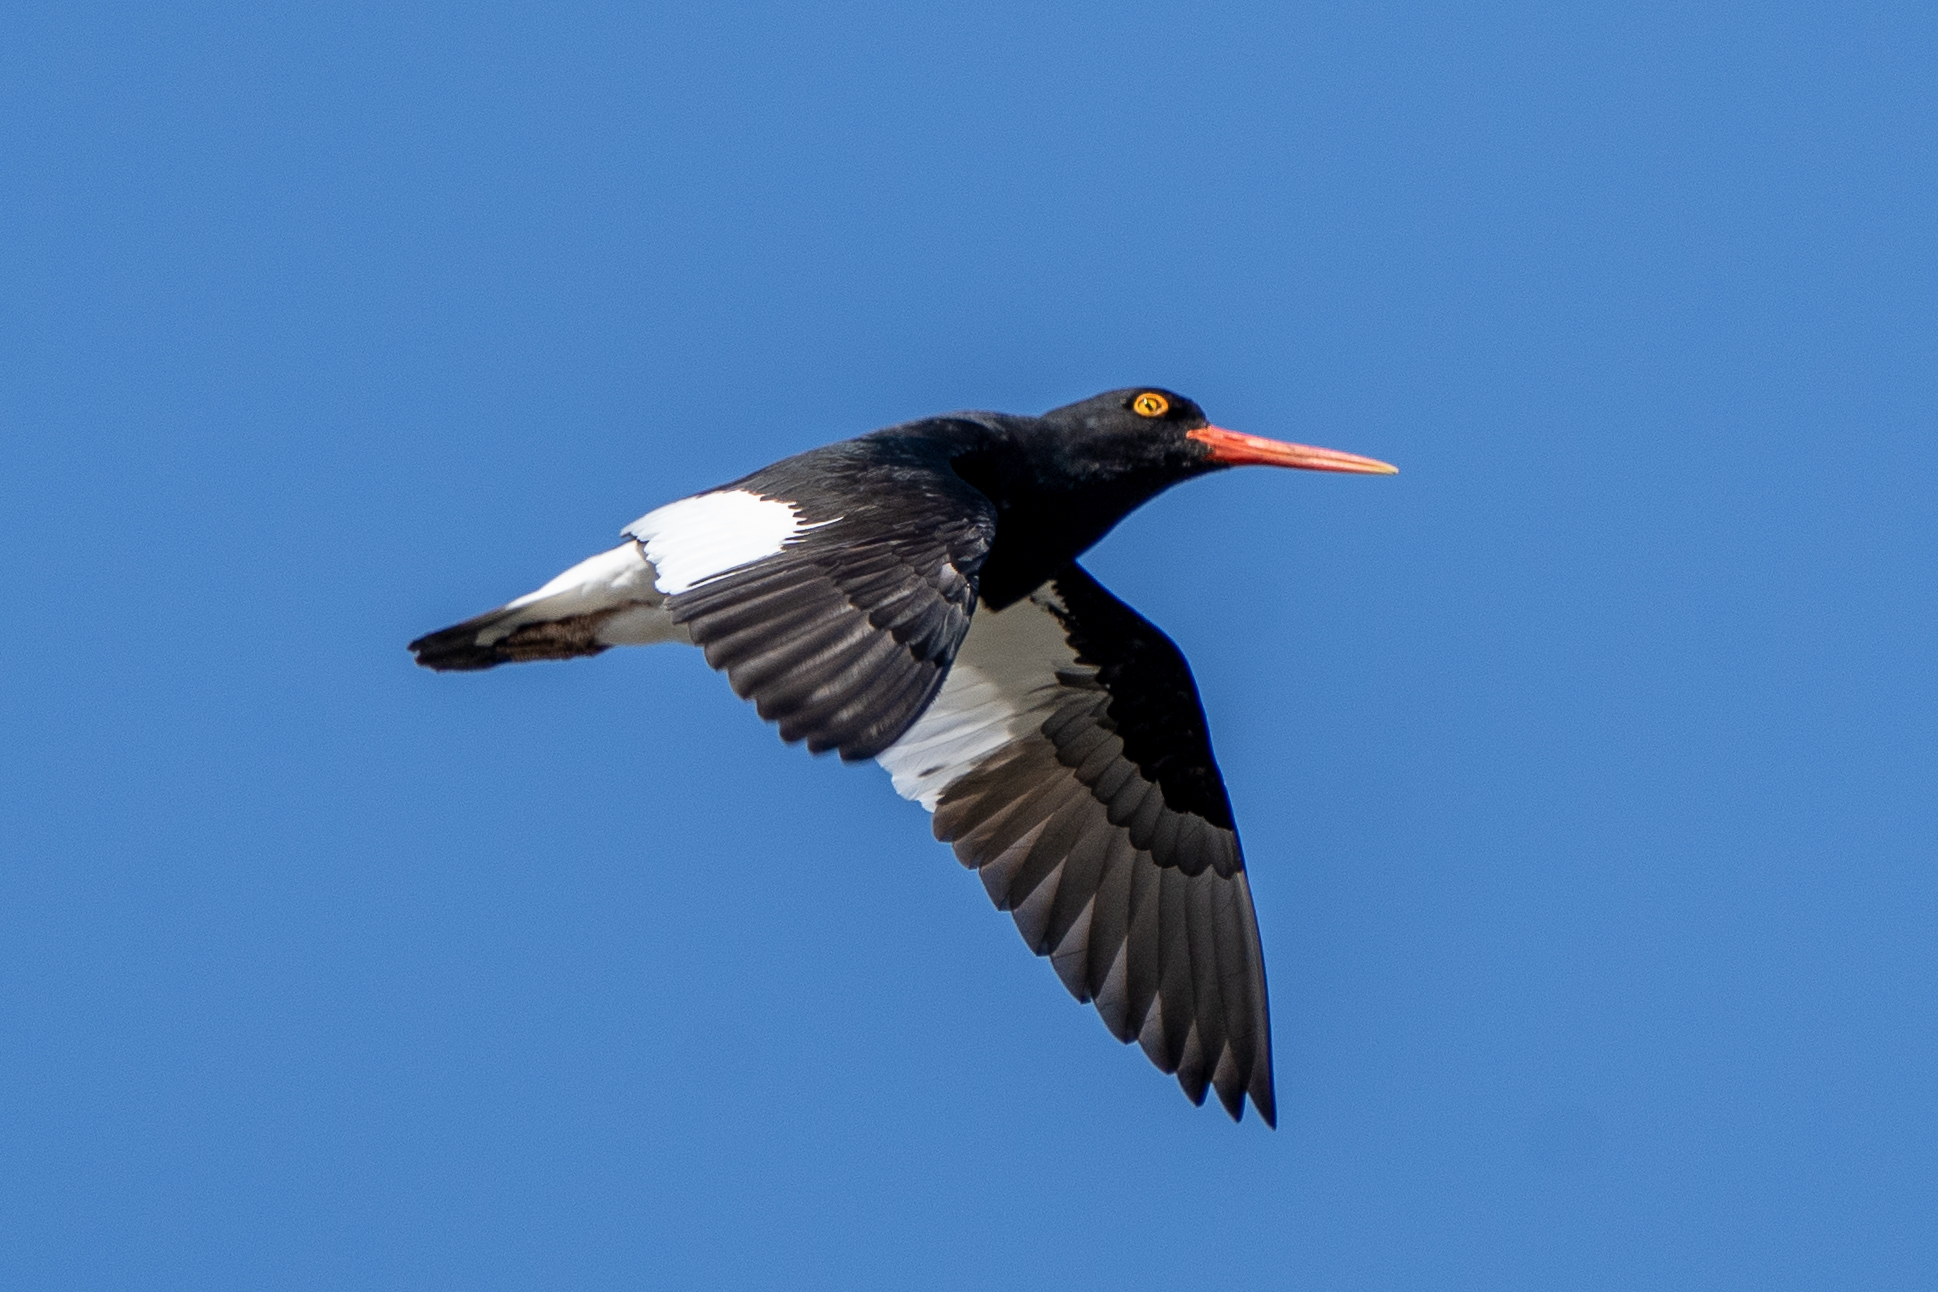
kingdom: Animalia
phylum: Chordata
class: Aves
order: Charadriiformes
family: Haematopodidae
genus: Haematopus
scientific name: Haematopus leucopodus
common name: Magellanic oystercatcher
